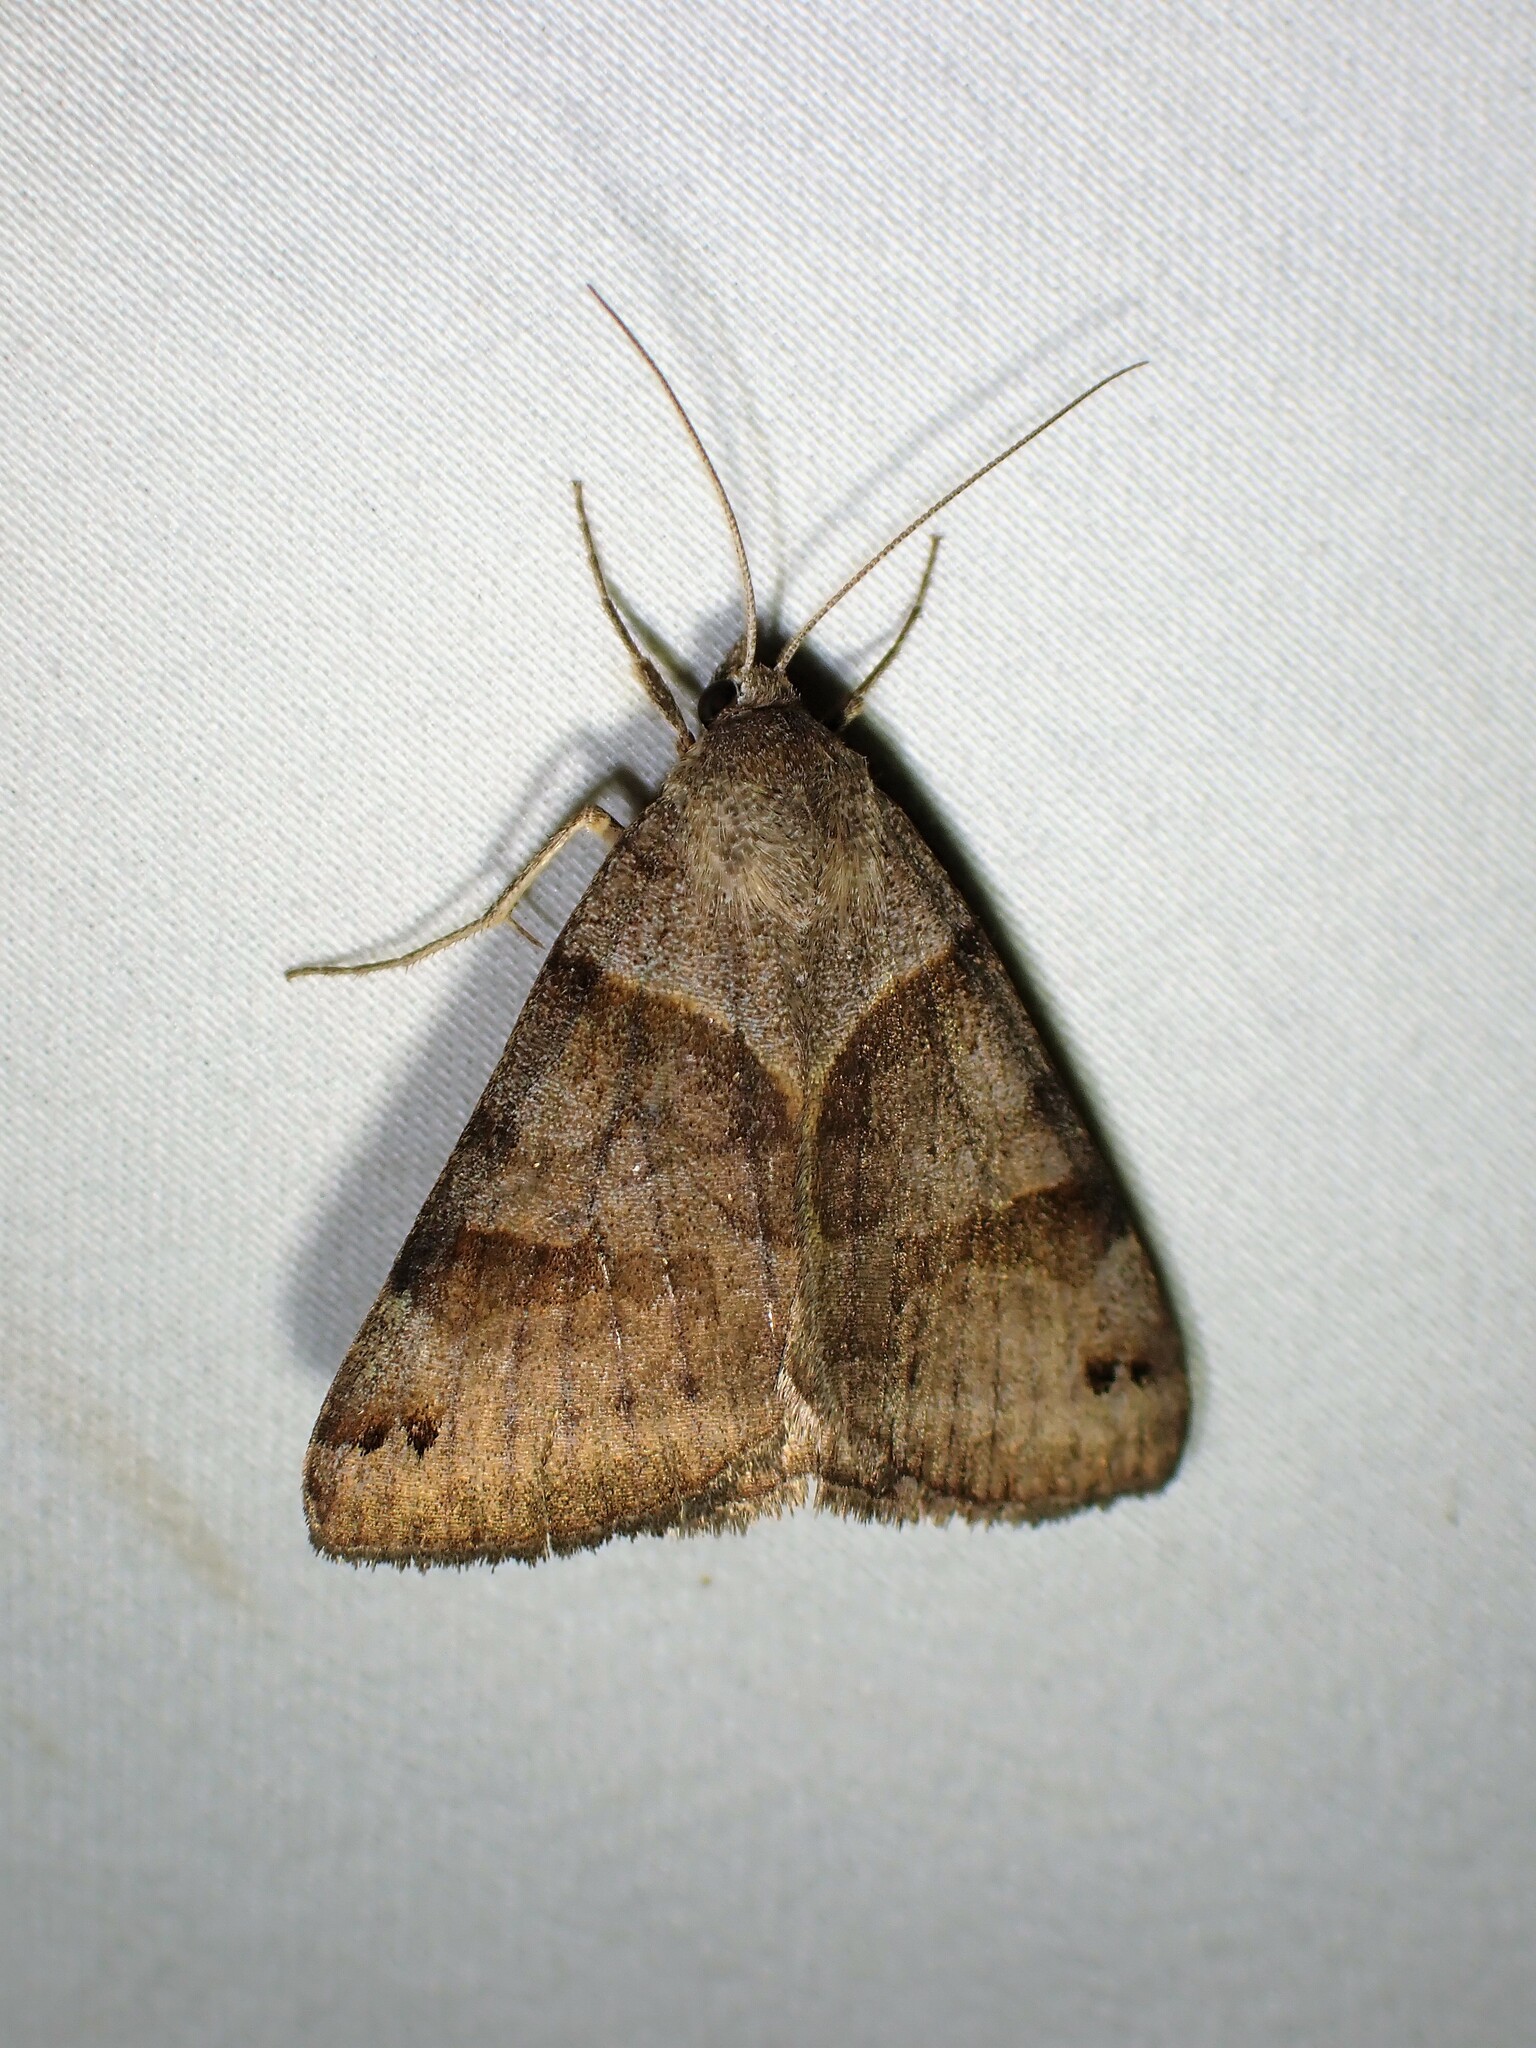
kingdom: Animalia
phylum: Arthropoda
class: Insecta
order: Lepidoptera
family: Erebidae
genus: Caenurgina
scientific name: Caenurgina crassiuscula
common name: Double-barred
